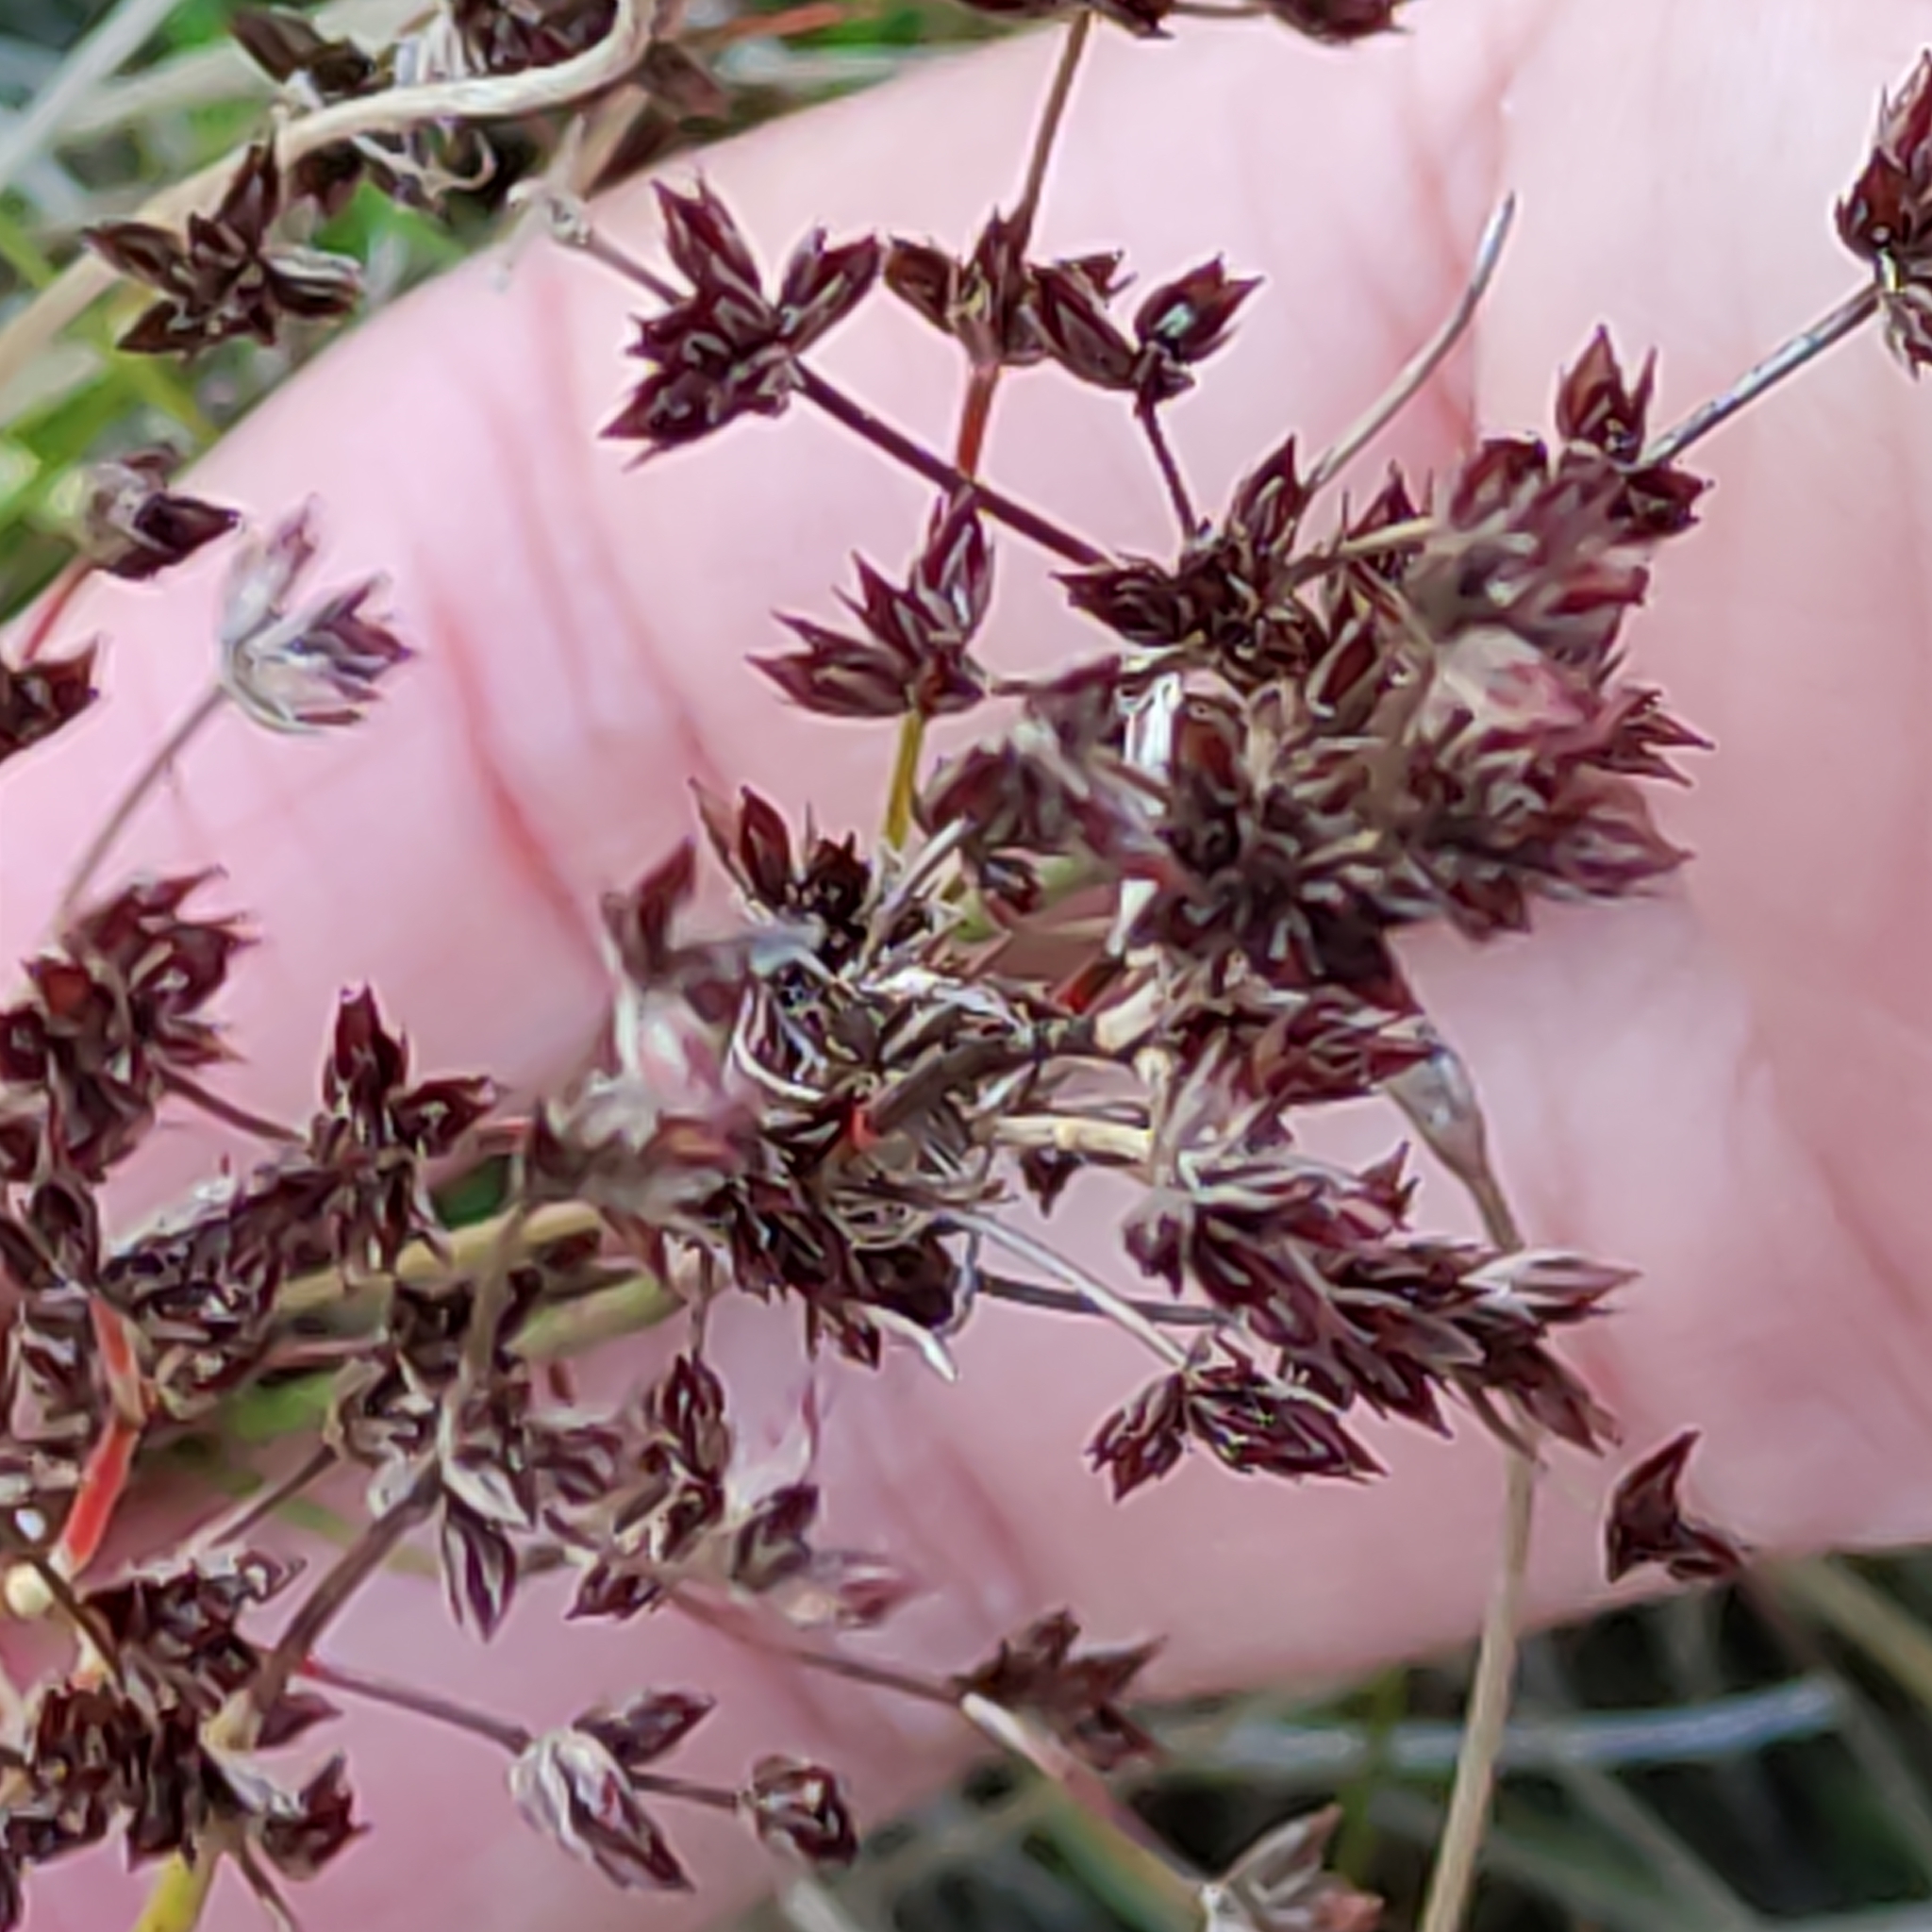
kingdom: Plantae
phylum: Tracheophyta
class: Liliopsida
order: Poales
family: Juncaceae
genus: Juncus
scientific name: Juncus articulatus
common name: Jointed rush
